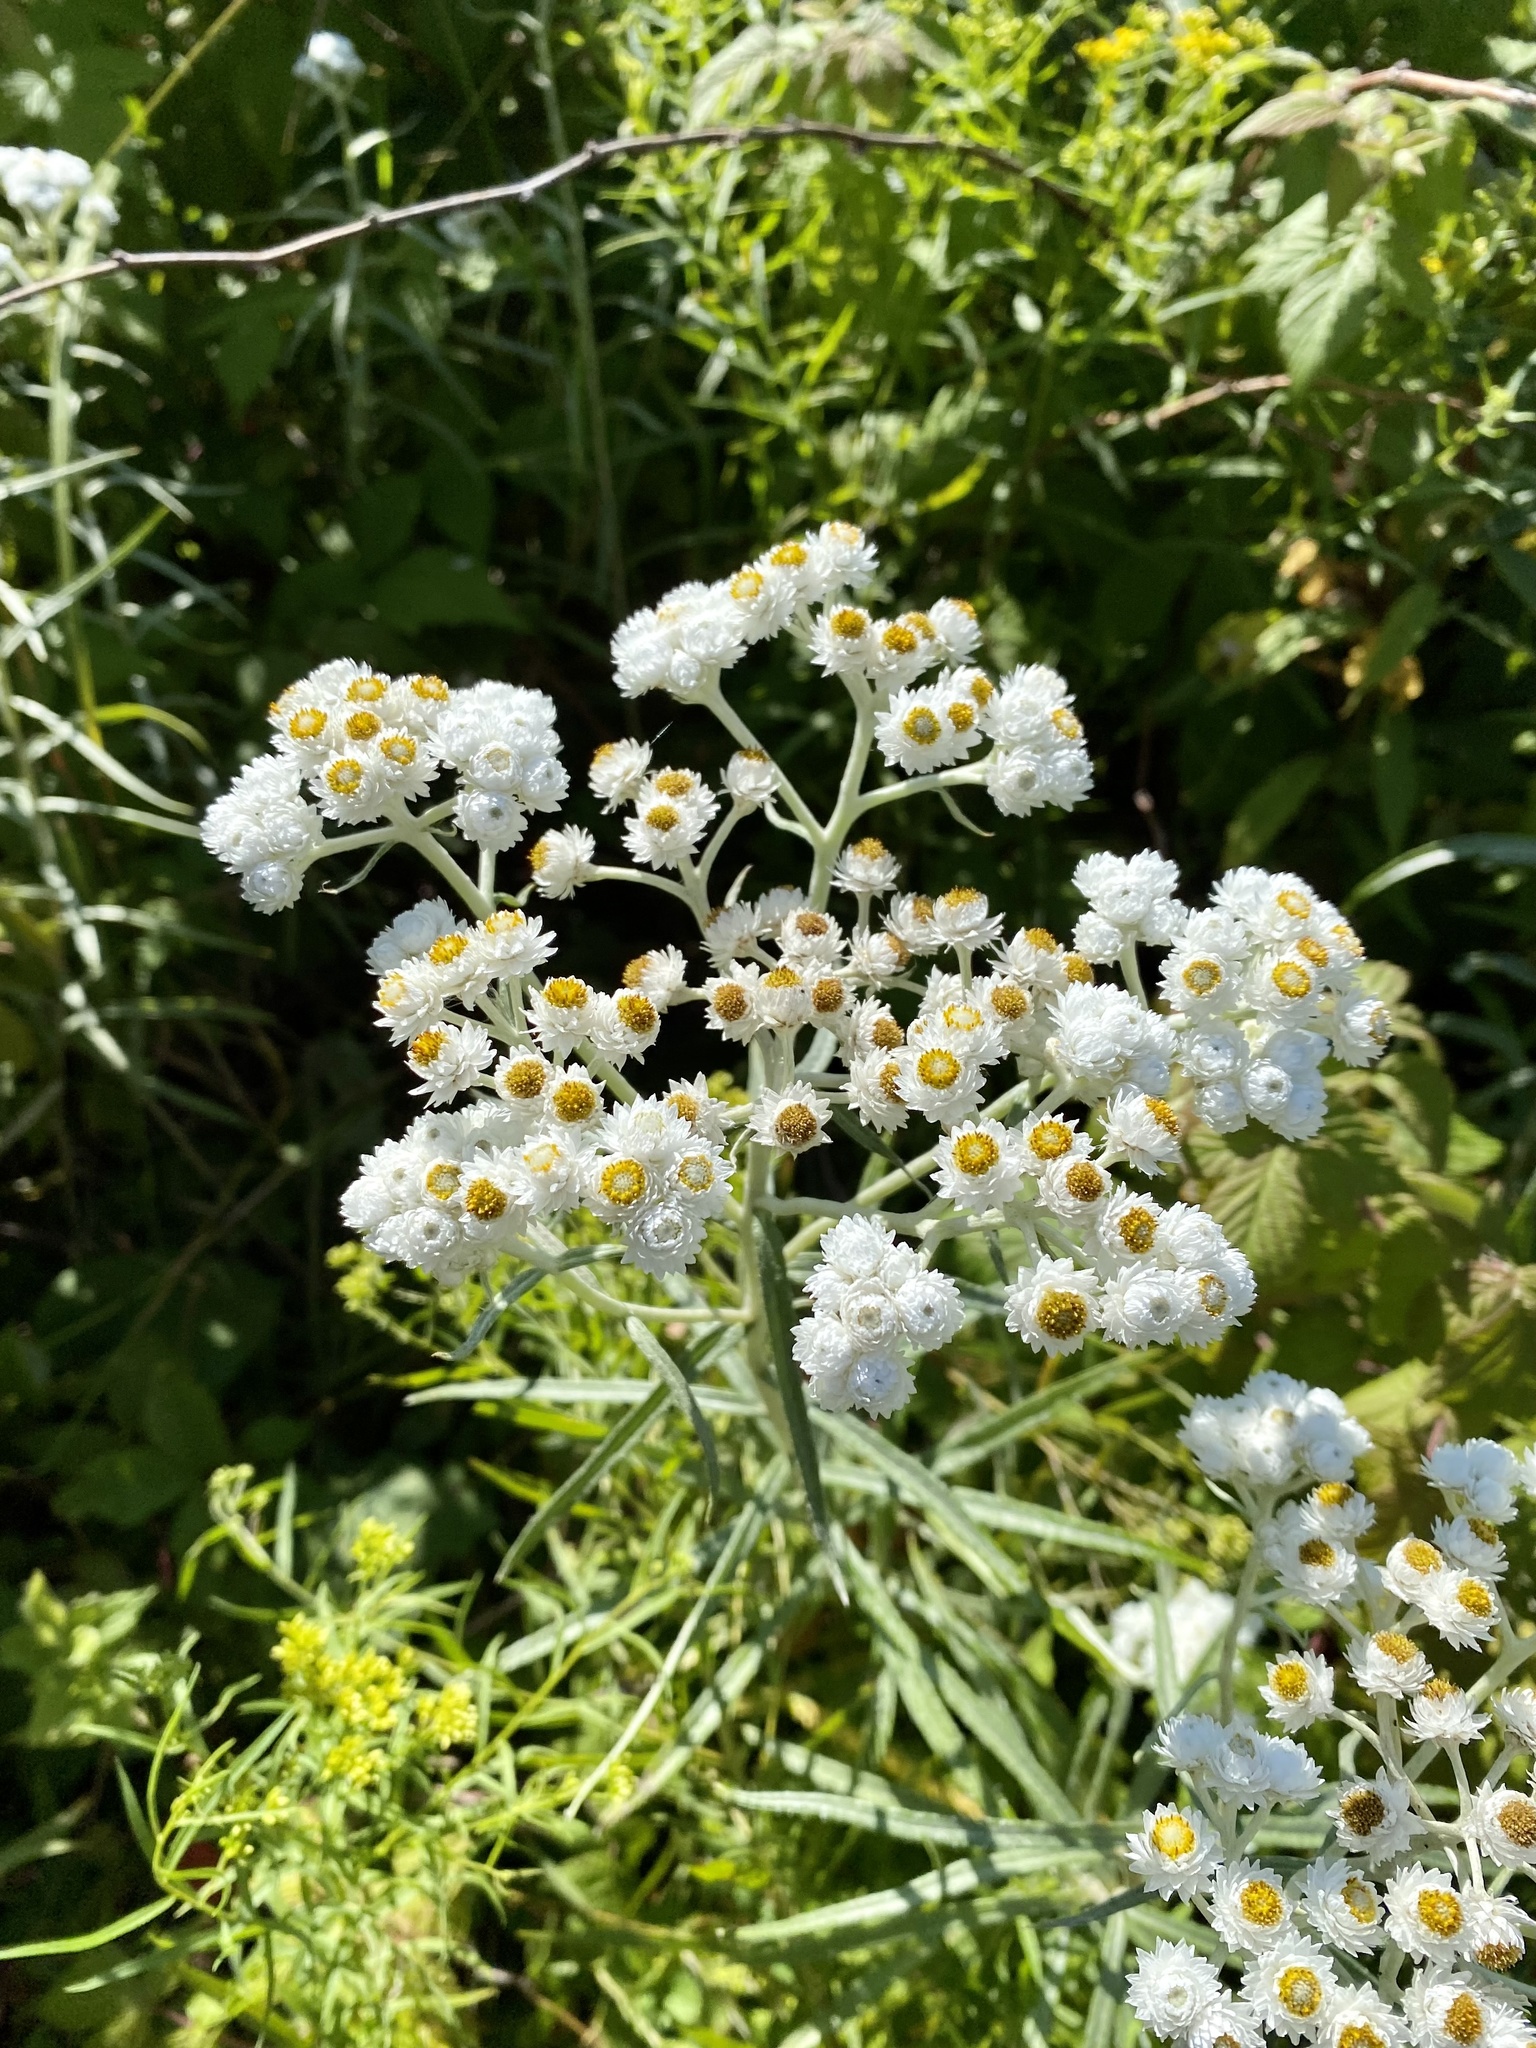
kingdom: Plantae
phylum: Tracheophyta
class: Magnoliopsida
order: Asterales
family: Asteraceae
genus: Anaphalis
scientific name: Anaphalis margaritacea
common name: Pearly everlasting
